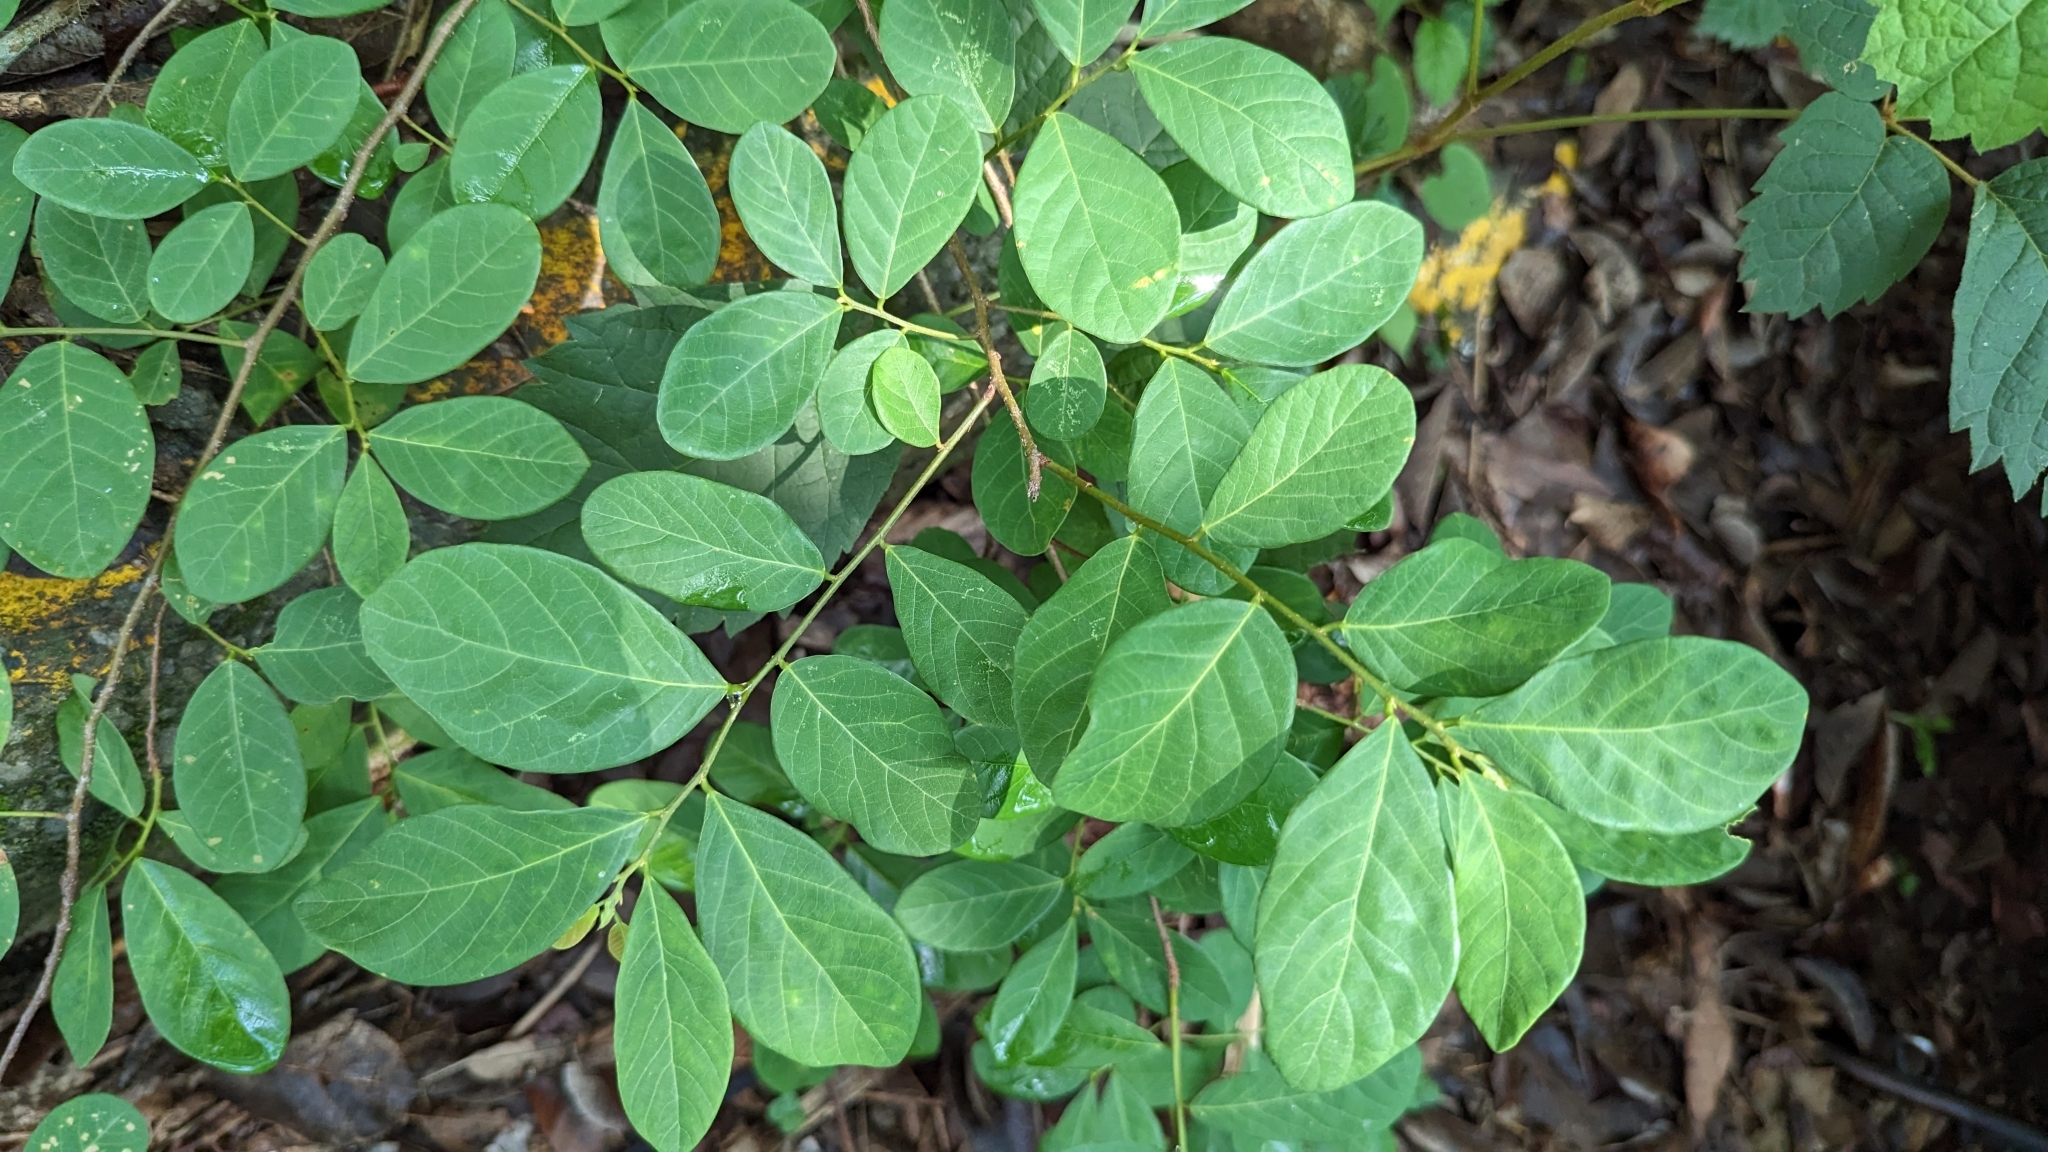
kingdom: Plantae
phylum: Tracheophyta
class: Magnoliopsida
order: Malpighiales
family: Phyllanthaceae
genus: Bridelia
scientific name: Bridelia tomentosa
